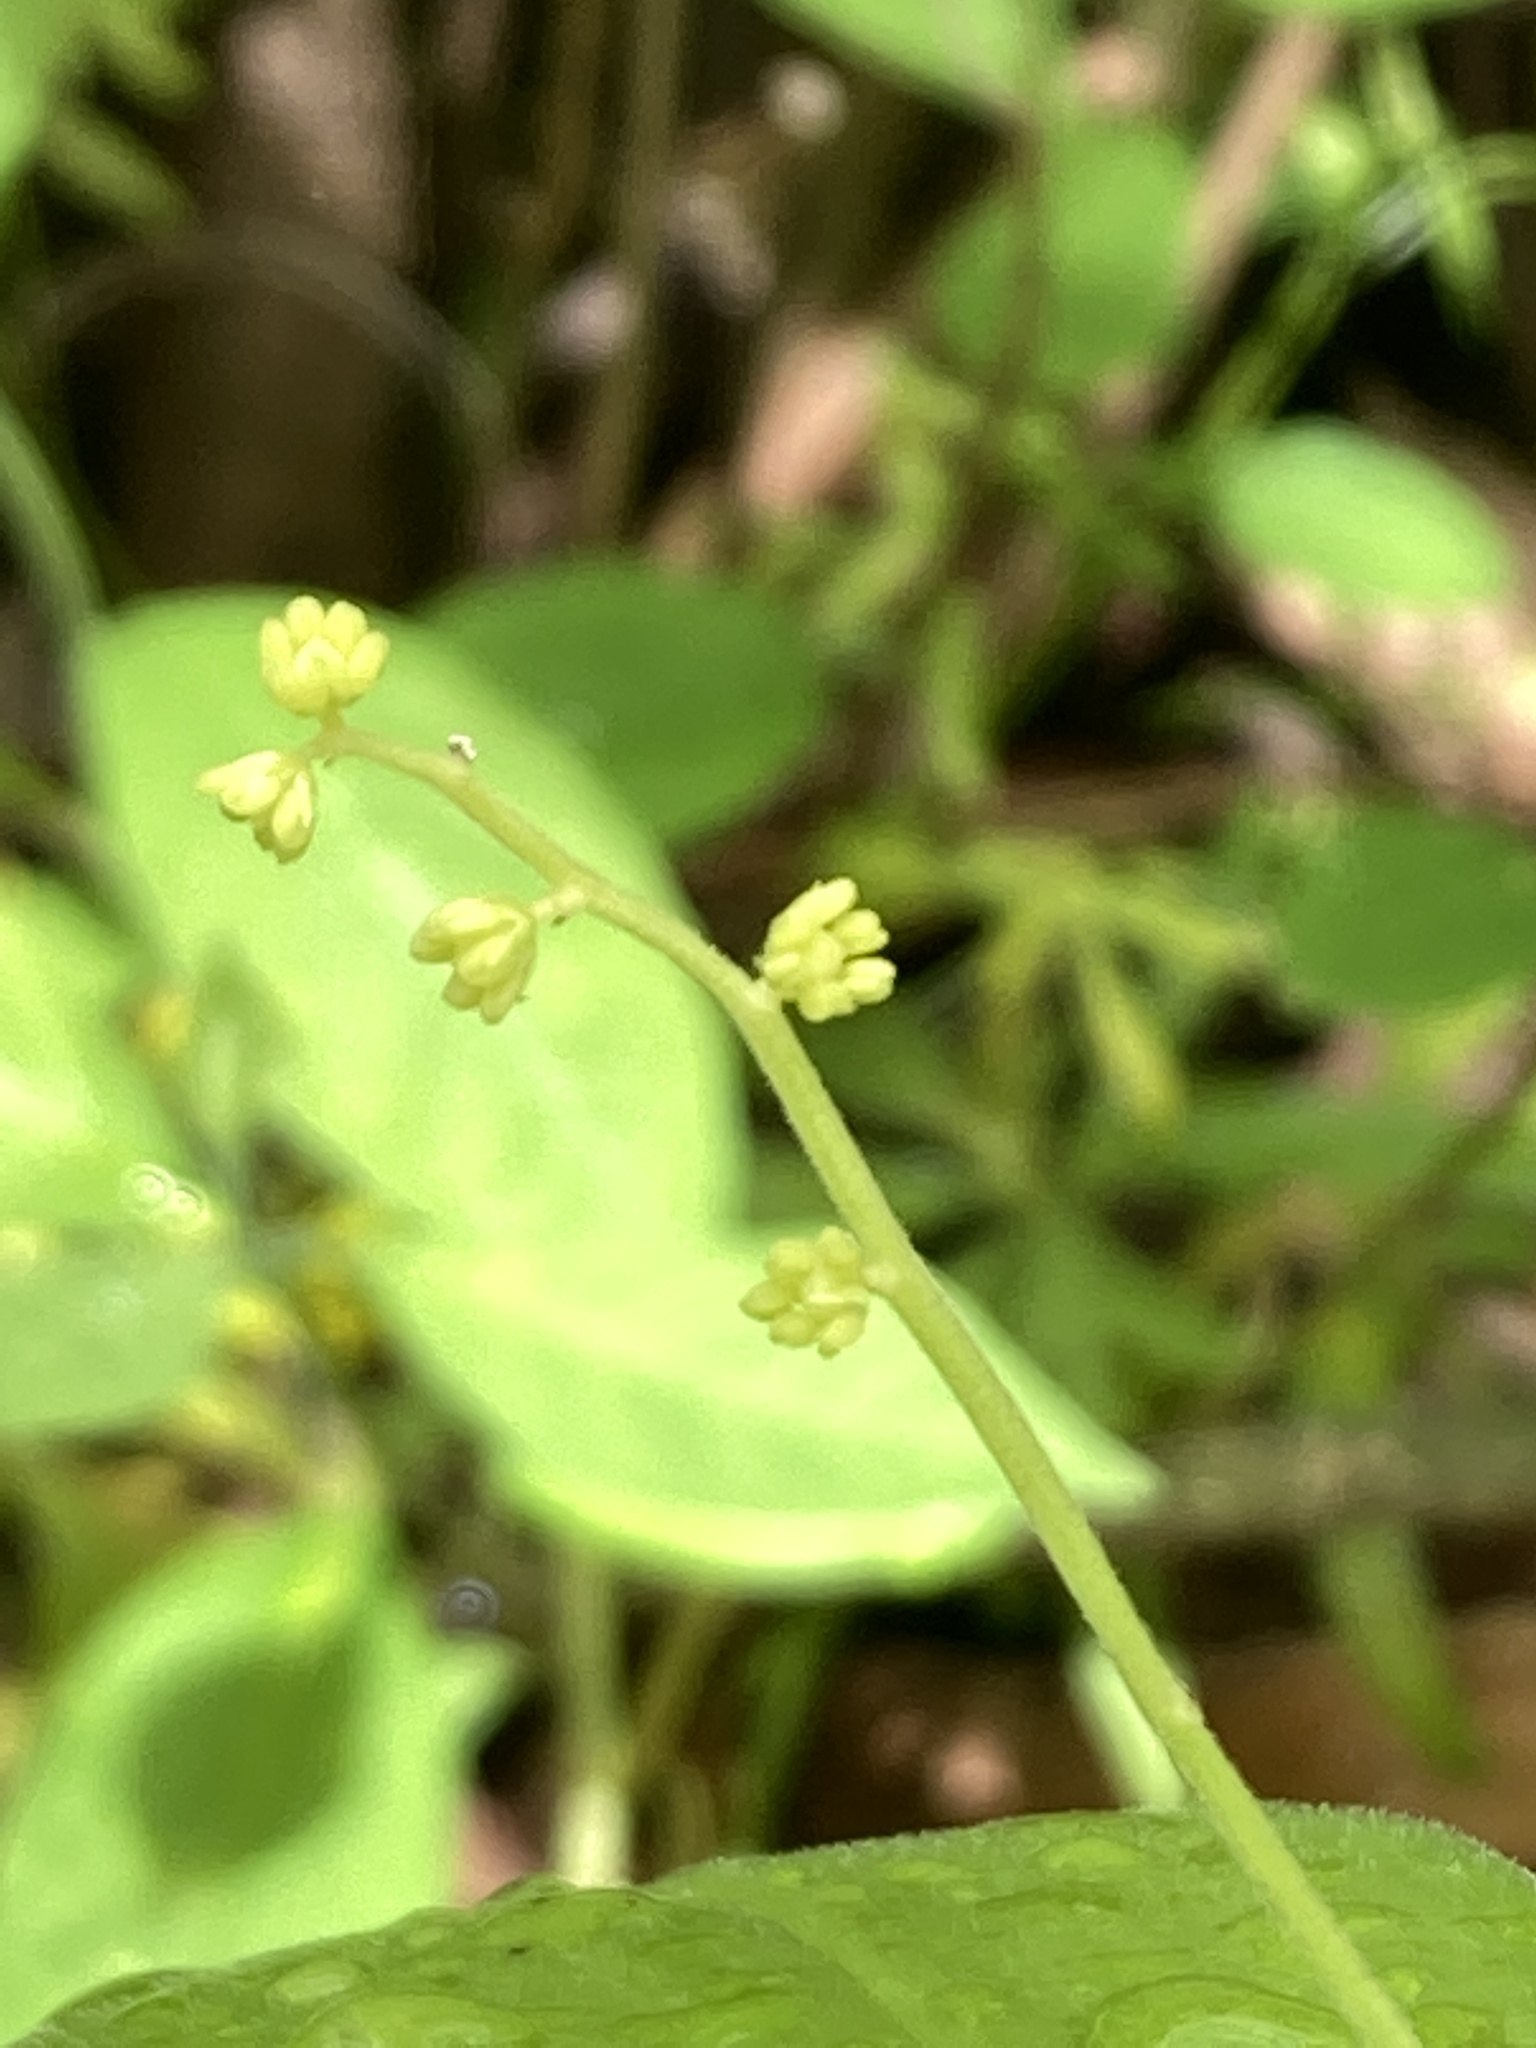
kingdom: Plantae
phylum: Tracheophyta
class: Liliopsida
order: Asparagales
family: Asparagaceae
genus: Maianthemum
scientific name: Maianthemum racemosum
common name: False spikenard
